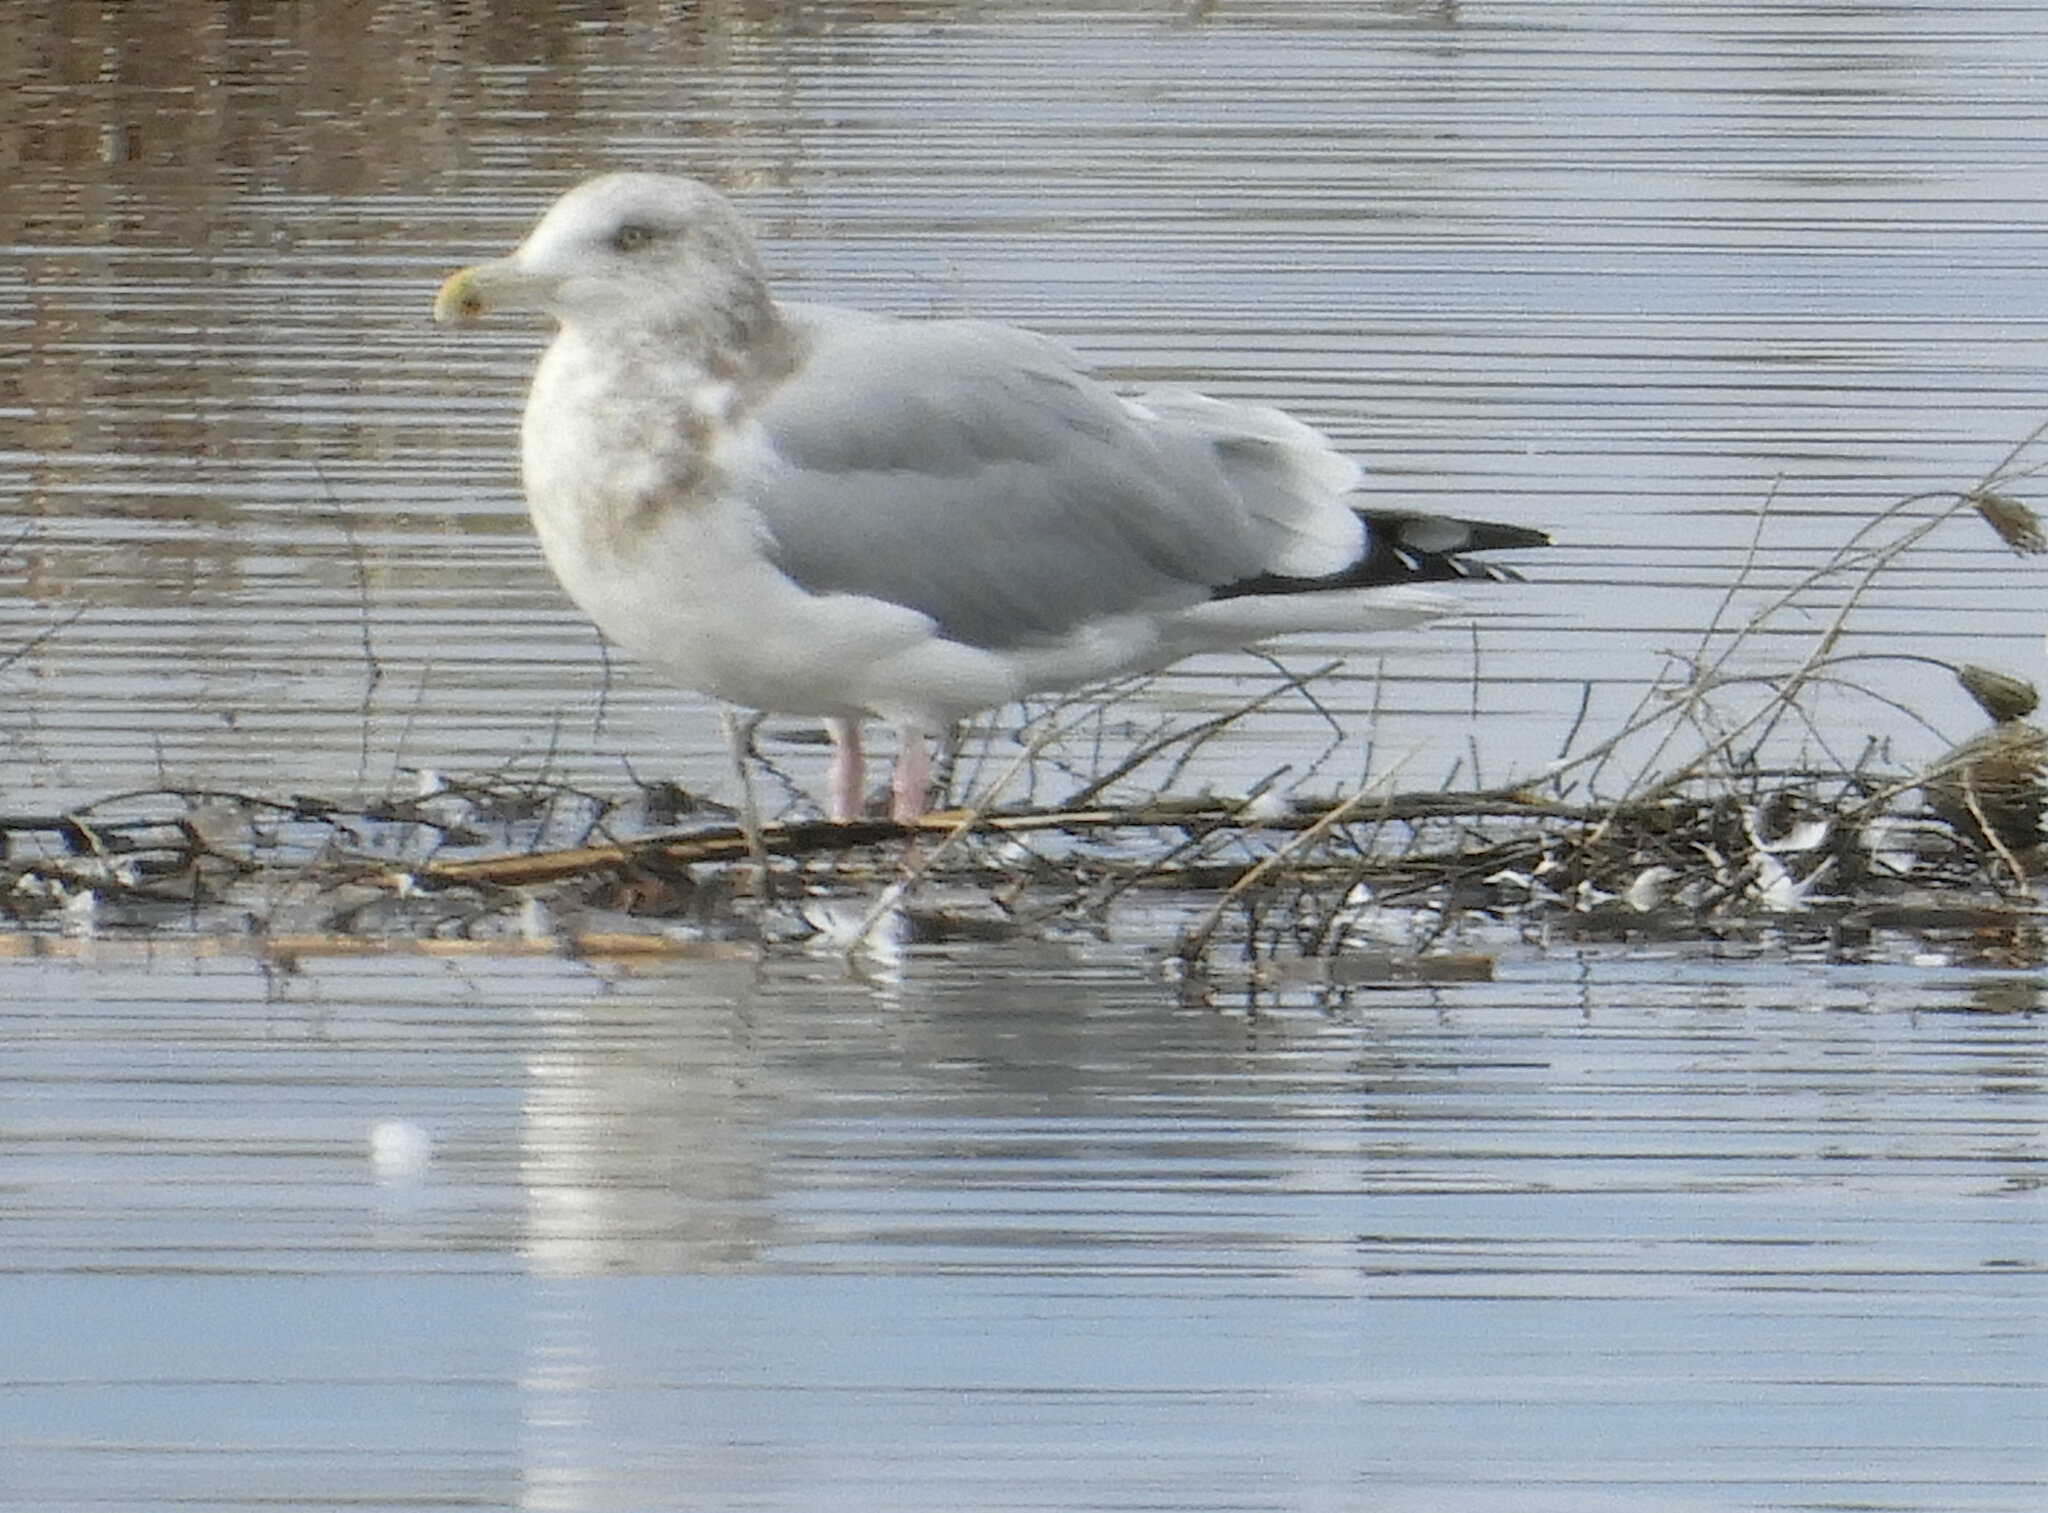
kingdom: Animalia
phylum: Chordata
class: Aves
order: Charadriiformes
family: Laridae
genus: Larus
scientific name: Larus argentatus
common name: Herring gull
